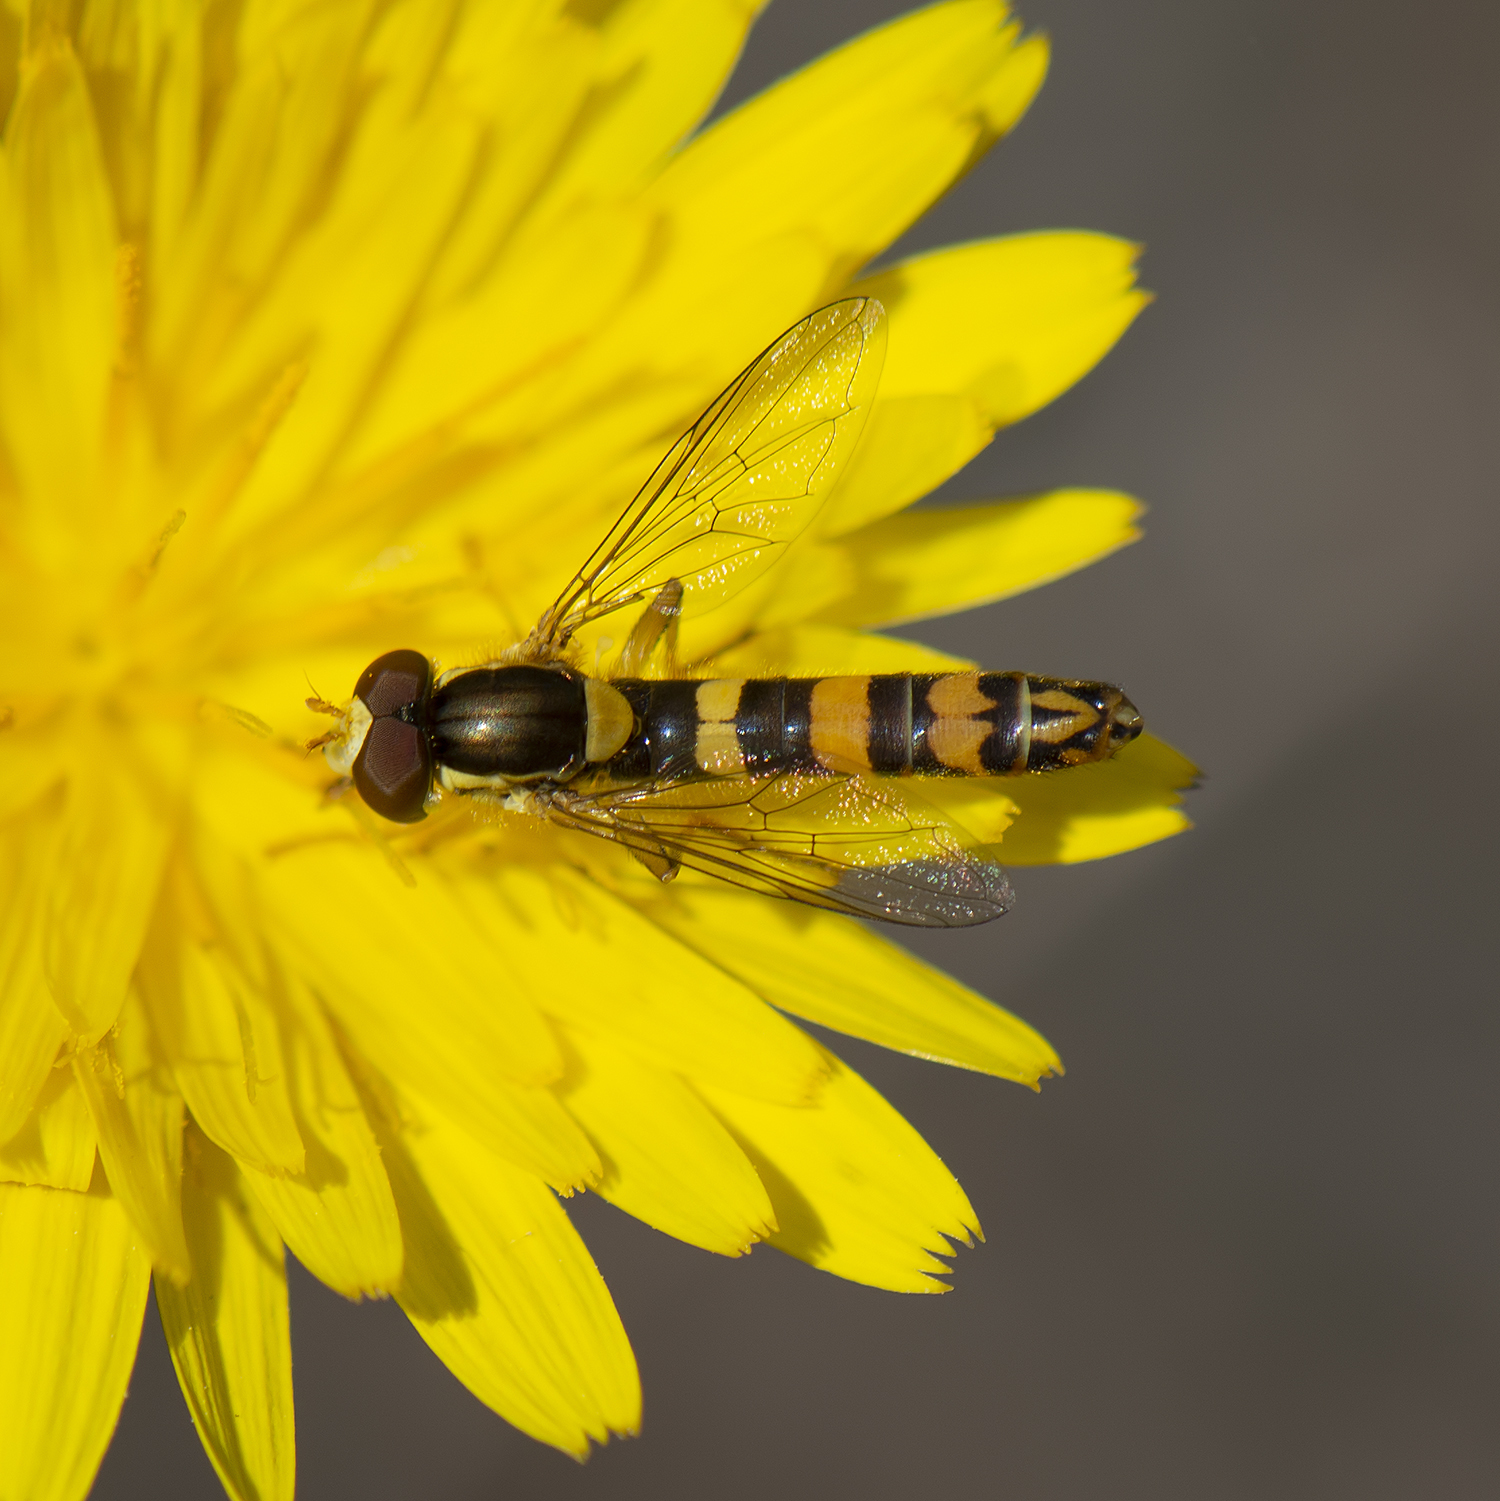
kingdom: Animalia
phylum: Arthropoda
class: Insecta
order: Diptera
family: Syrphidae
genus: Sphaerophoria
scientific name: Sphaerophoria scripta
